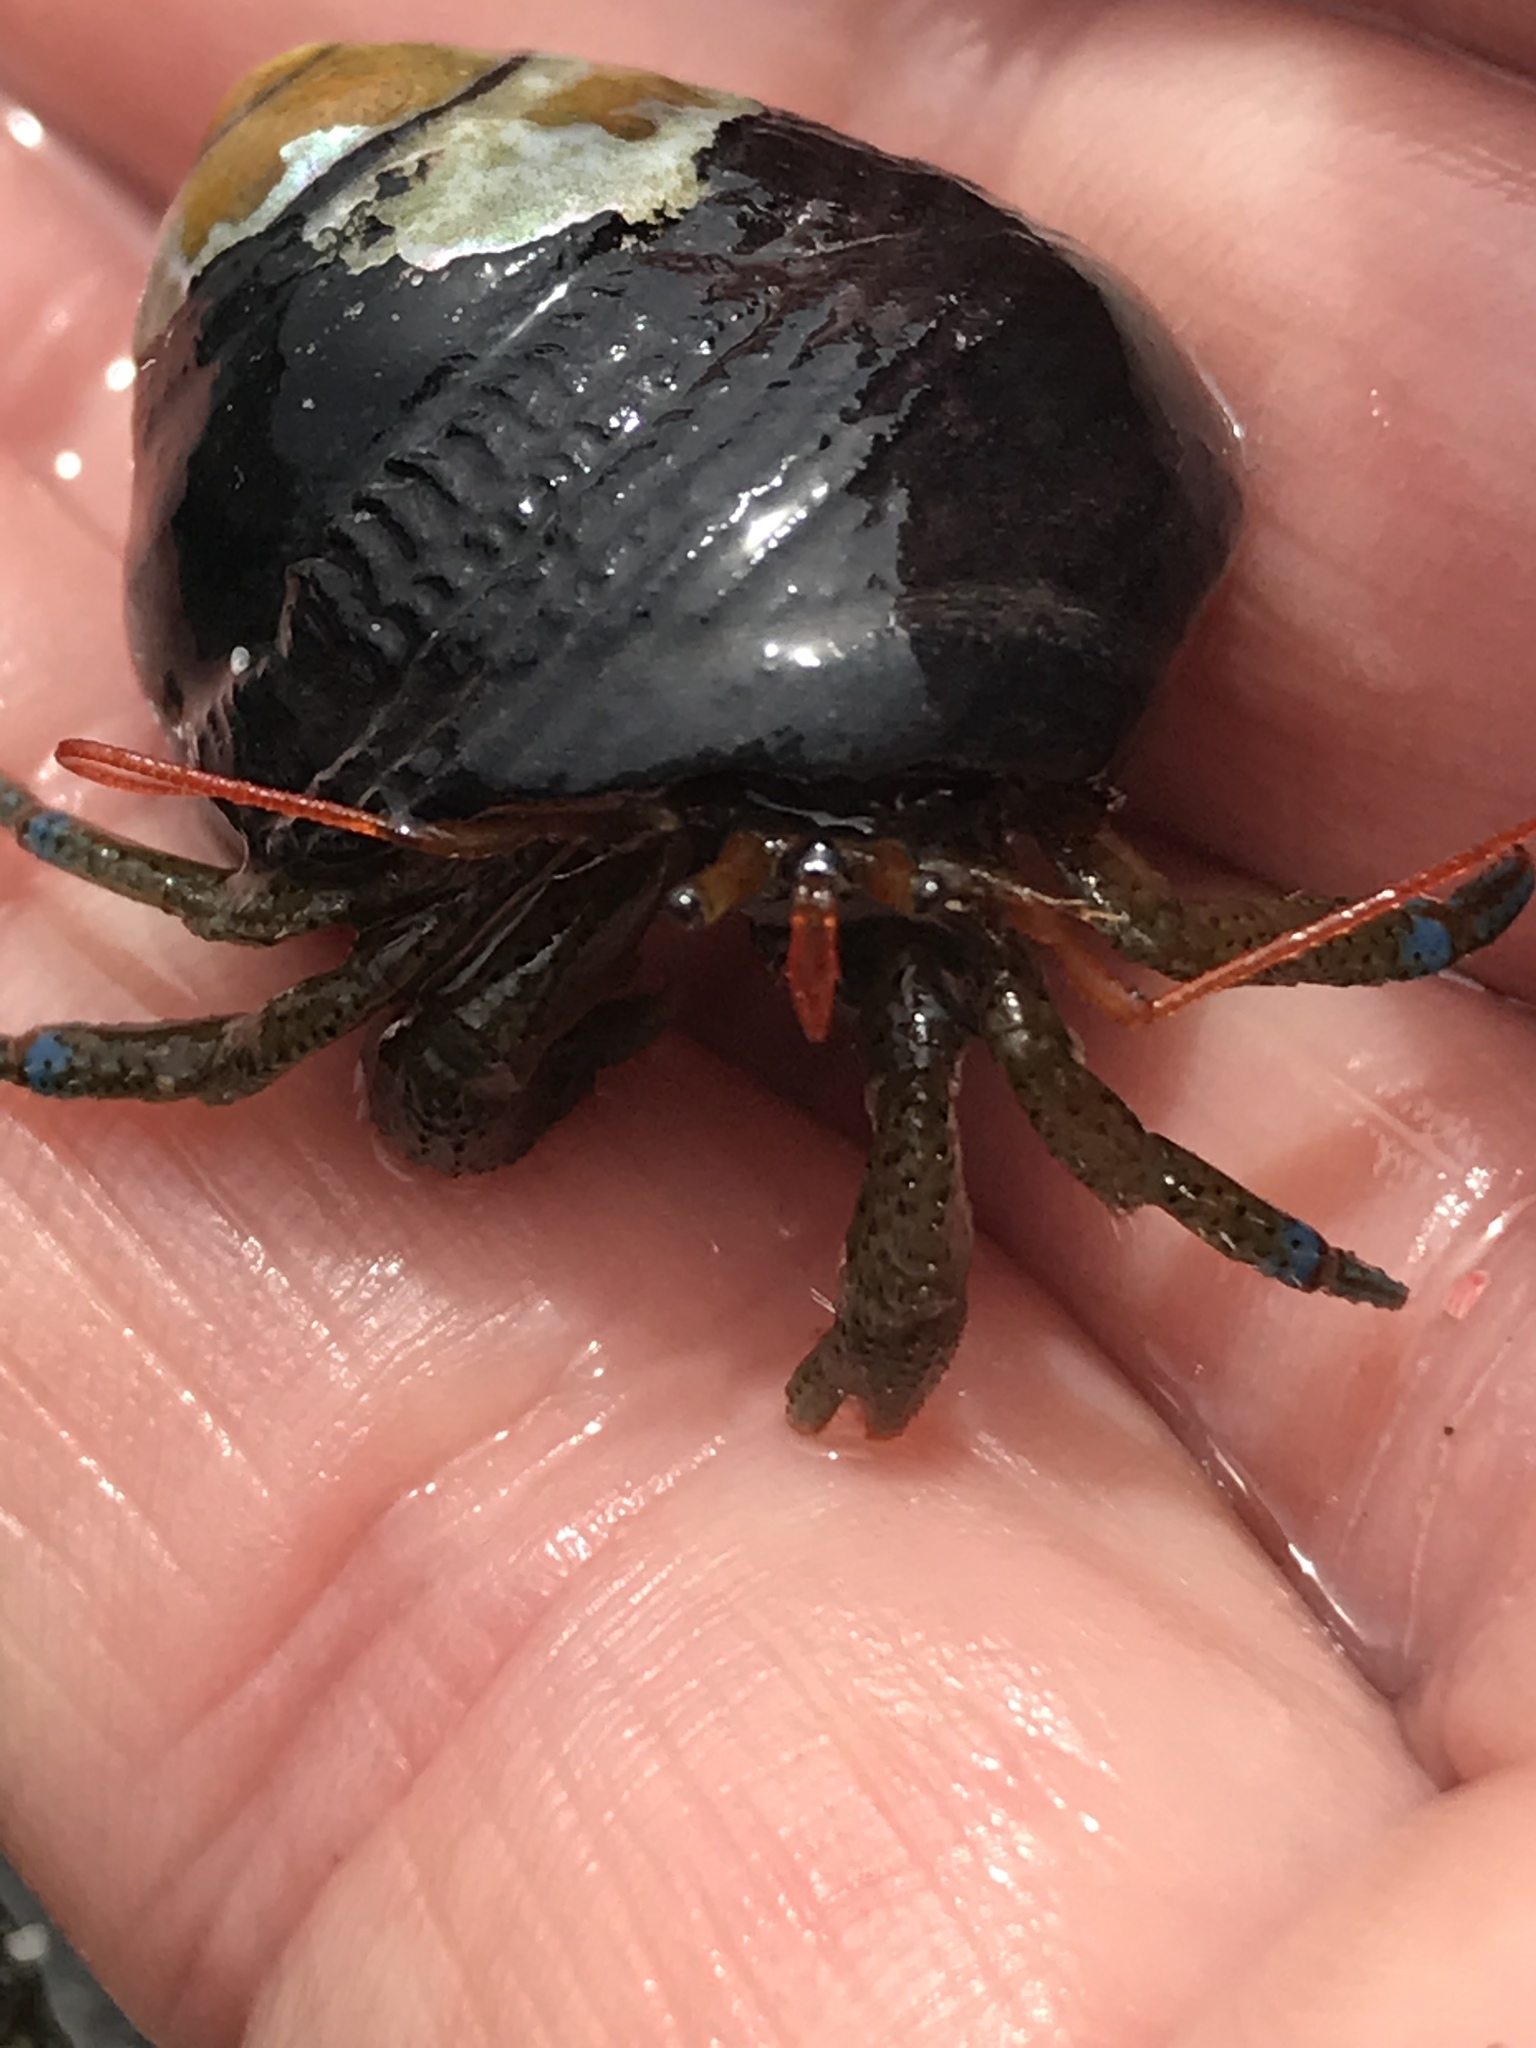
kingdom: Animalia
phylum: Arthropoda
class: Malacostraca
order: Decapoda
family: Paguridae
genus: Pagurus
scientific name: Pagurus samuelis
